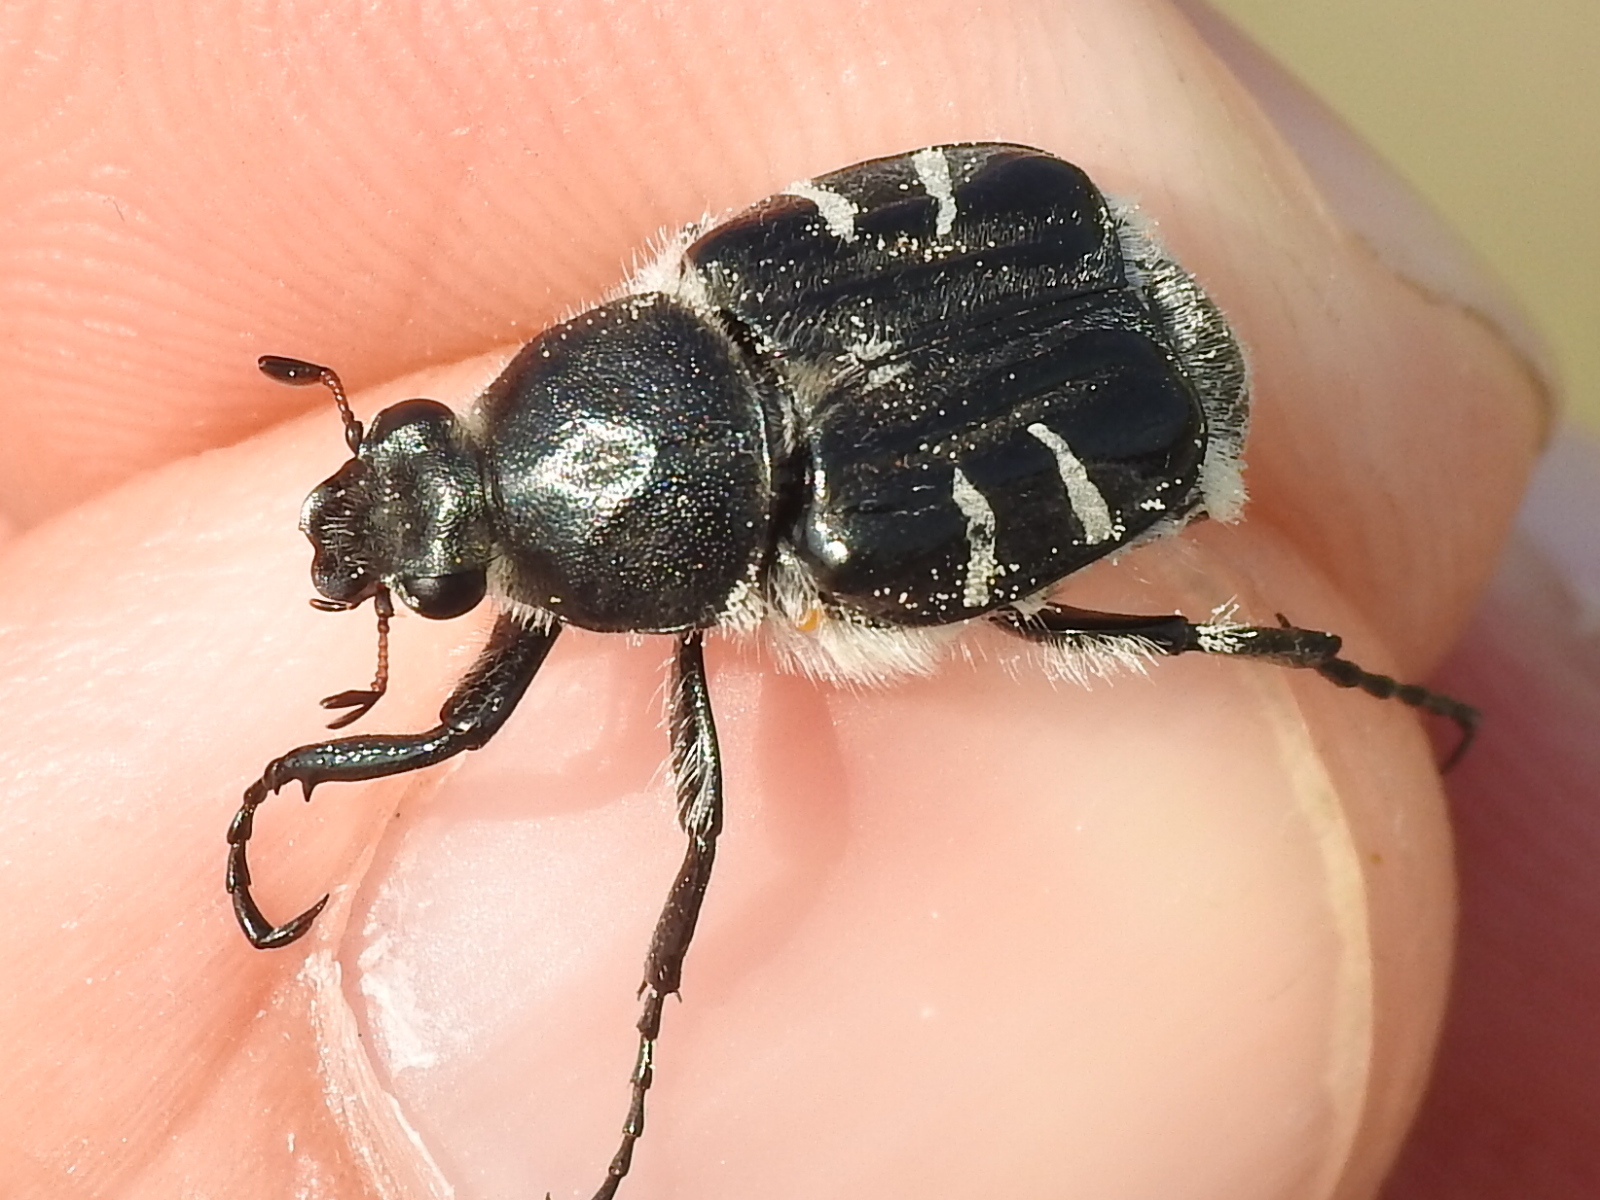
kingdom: Animalia
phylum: Arthropoda
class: Insecta
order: Coleoptera
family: Scarabaeidae
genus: Trichiotinus
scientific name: Trichiotinus texanus
